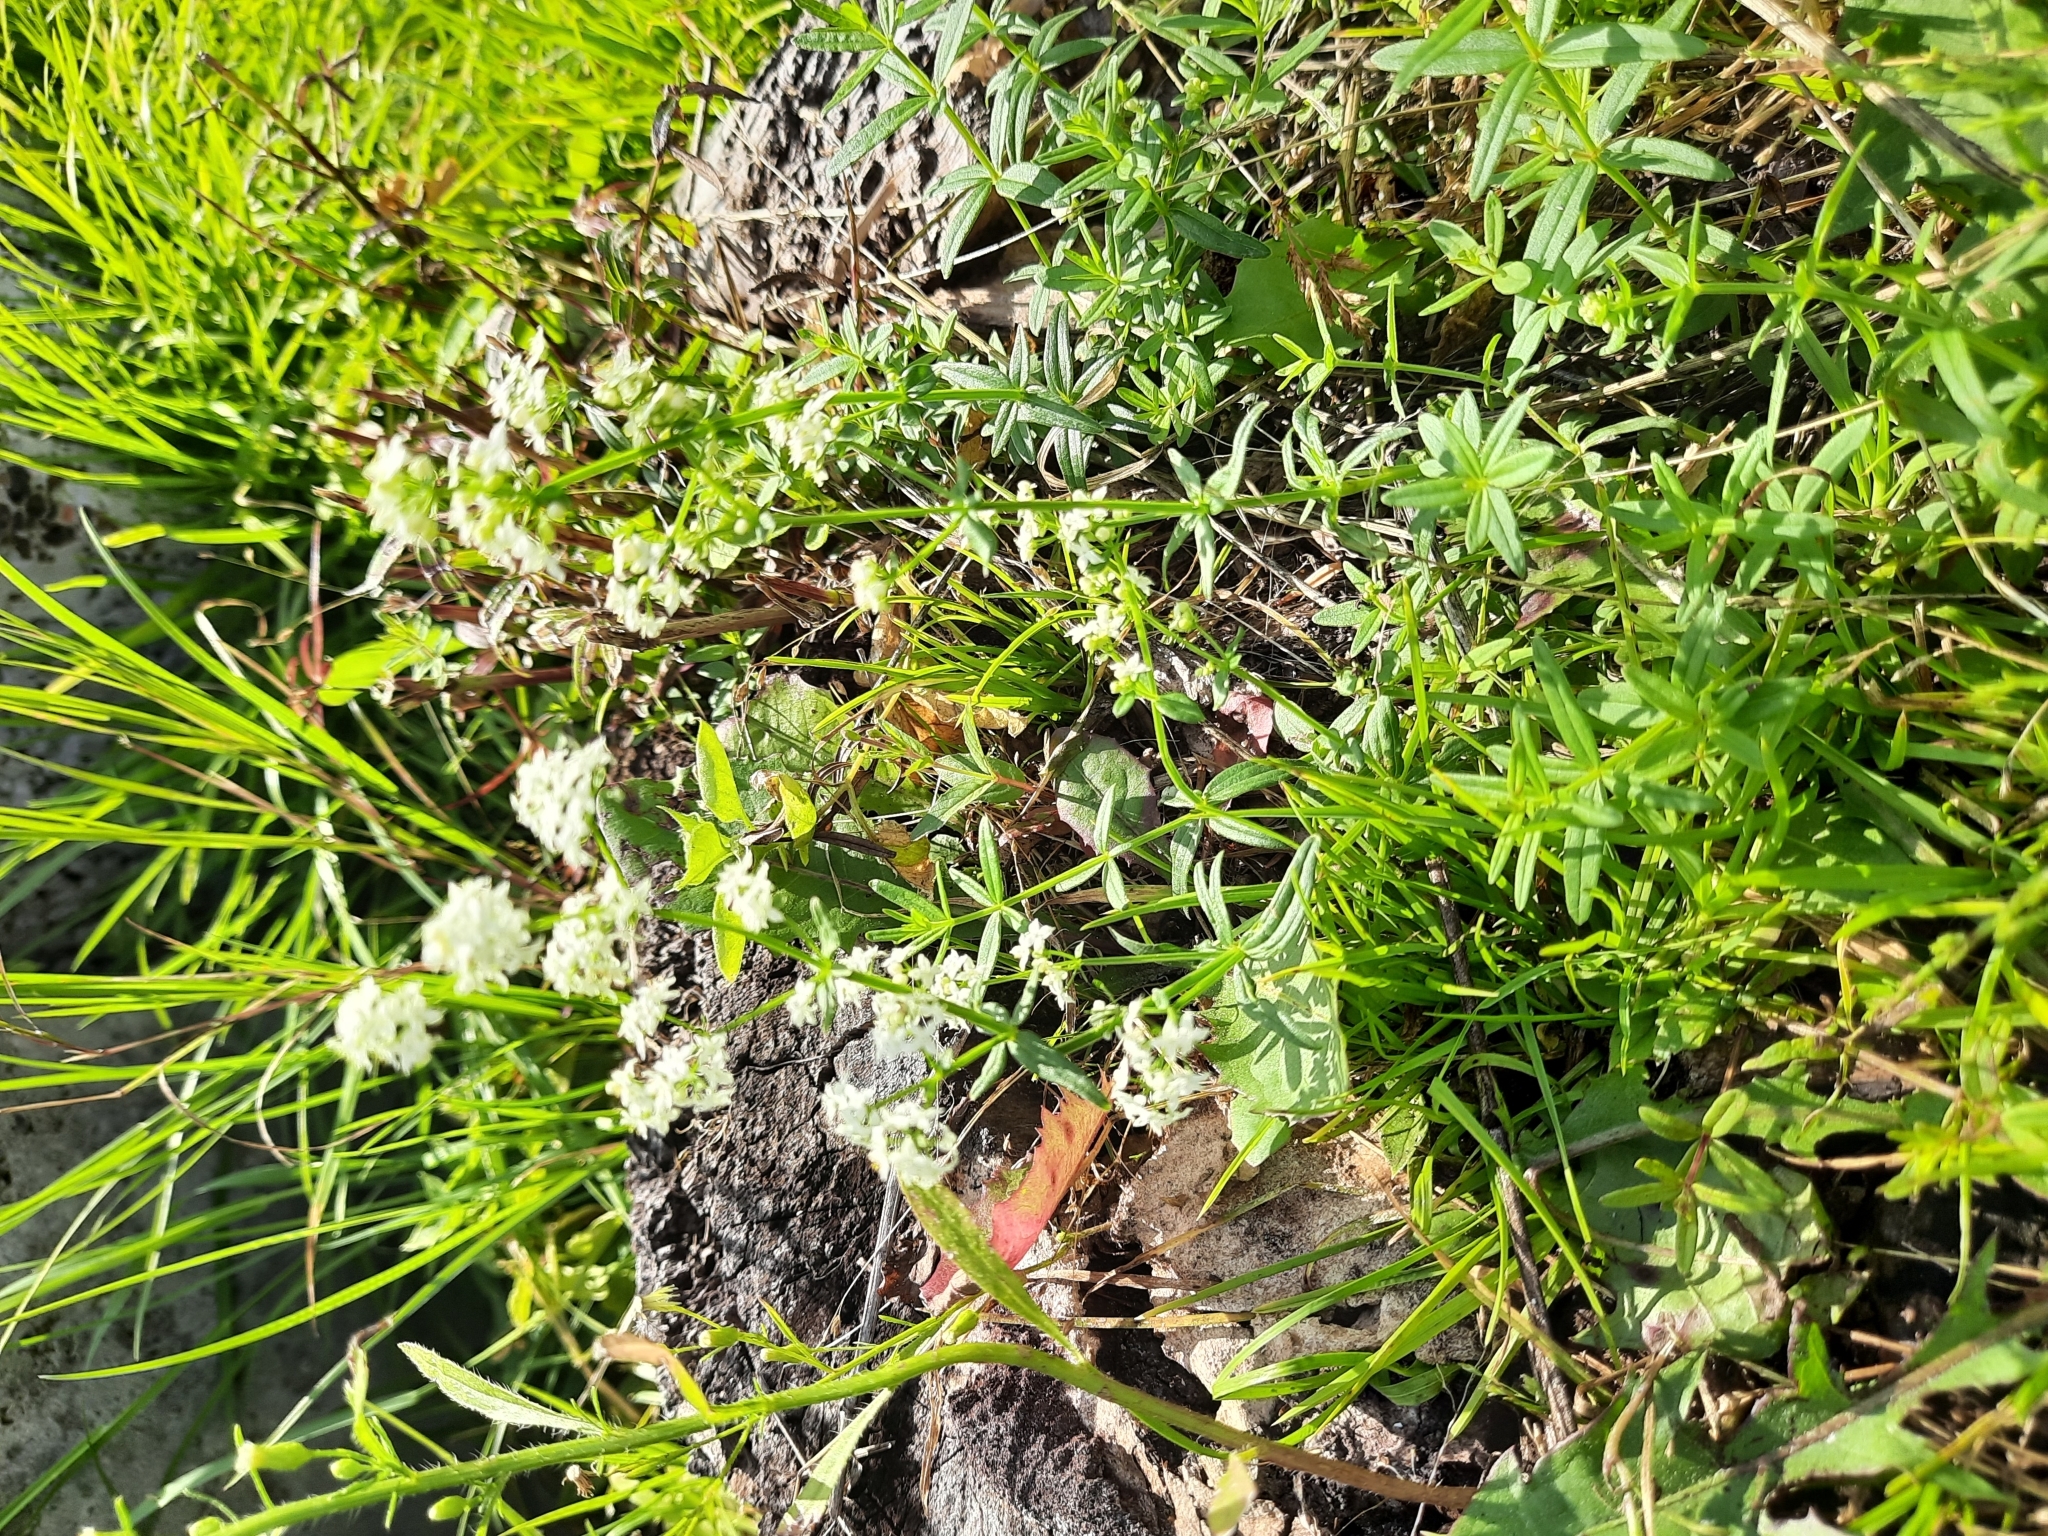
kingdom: Plantae
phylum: Tracheophyta
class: Magnoliopsida
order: Gentianales
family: Rubiaceae
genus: Galium
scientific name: Galium boreale
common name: Northern bedstraw
